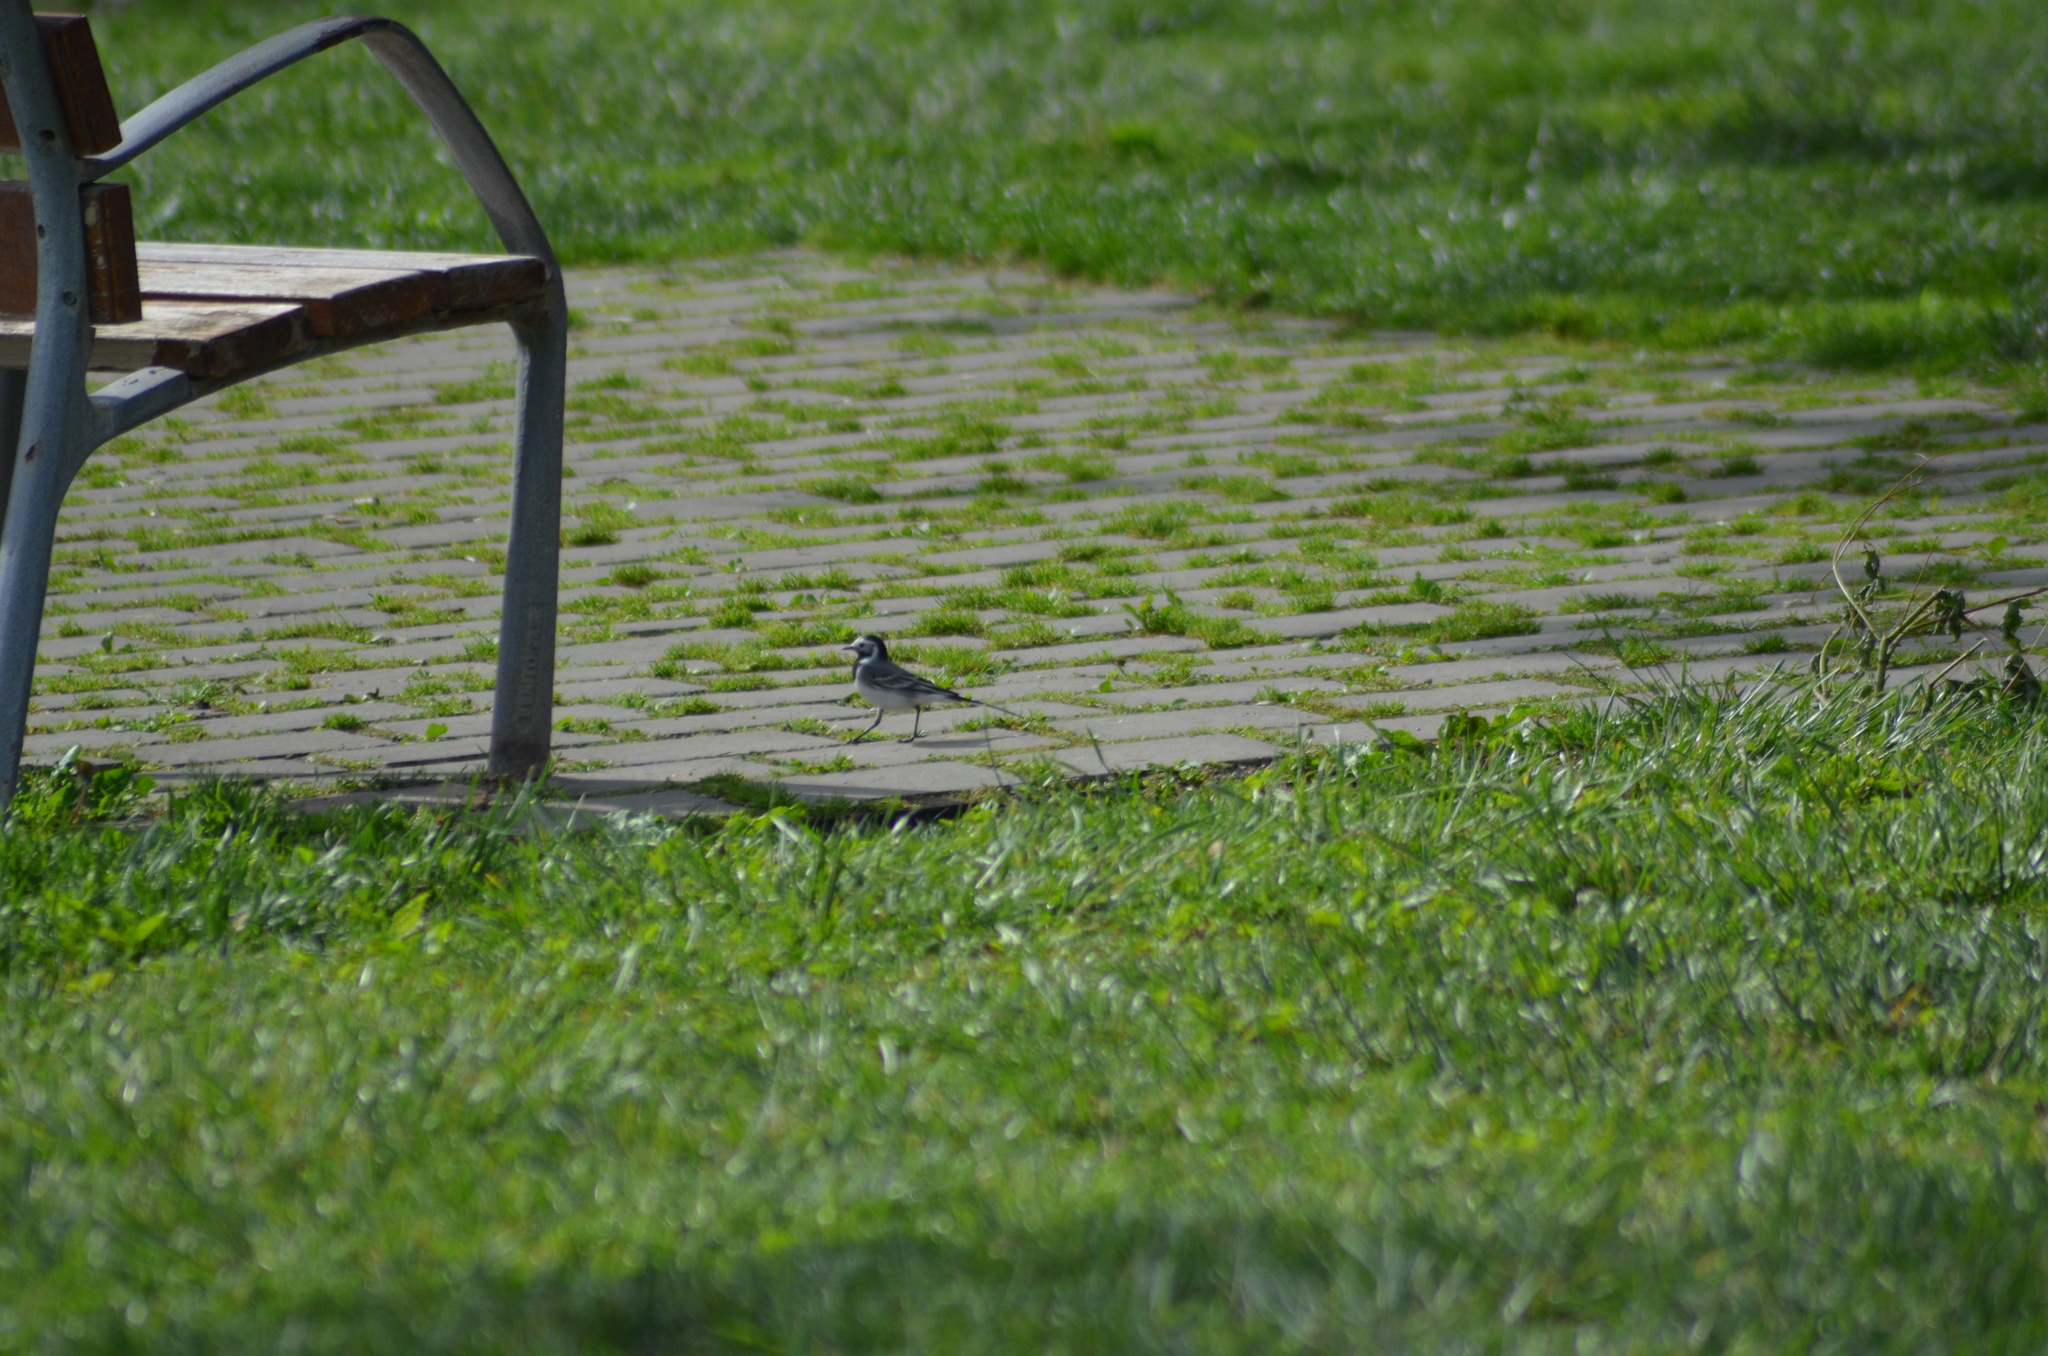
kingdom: Animalia
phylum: Chordata
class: Aves
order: Passeriformes
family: Motacillidae
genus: Motacilla
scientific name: Motacilla alba
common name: White wagtail
